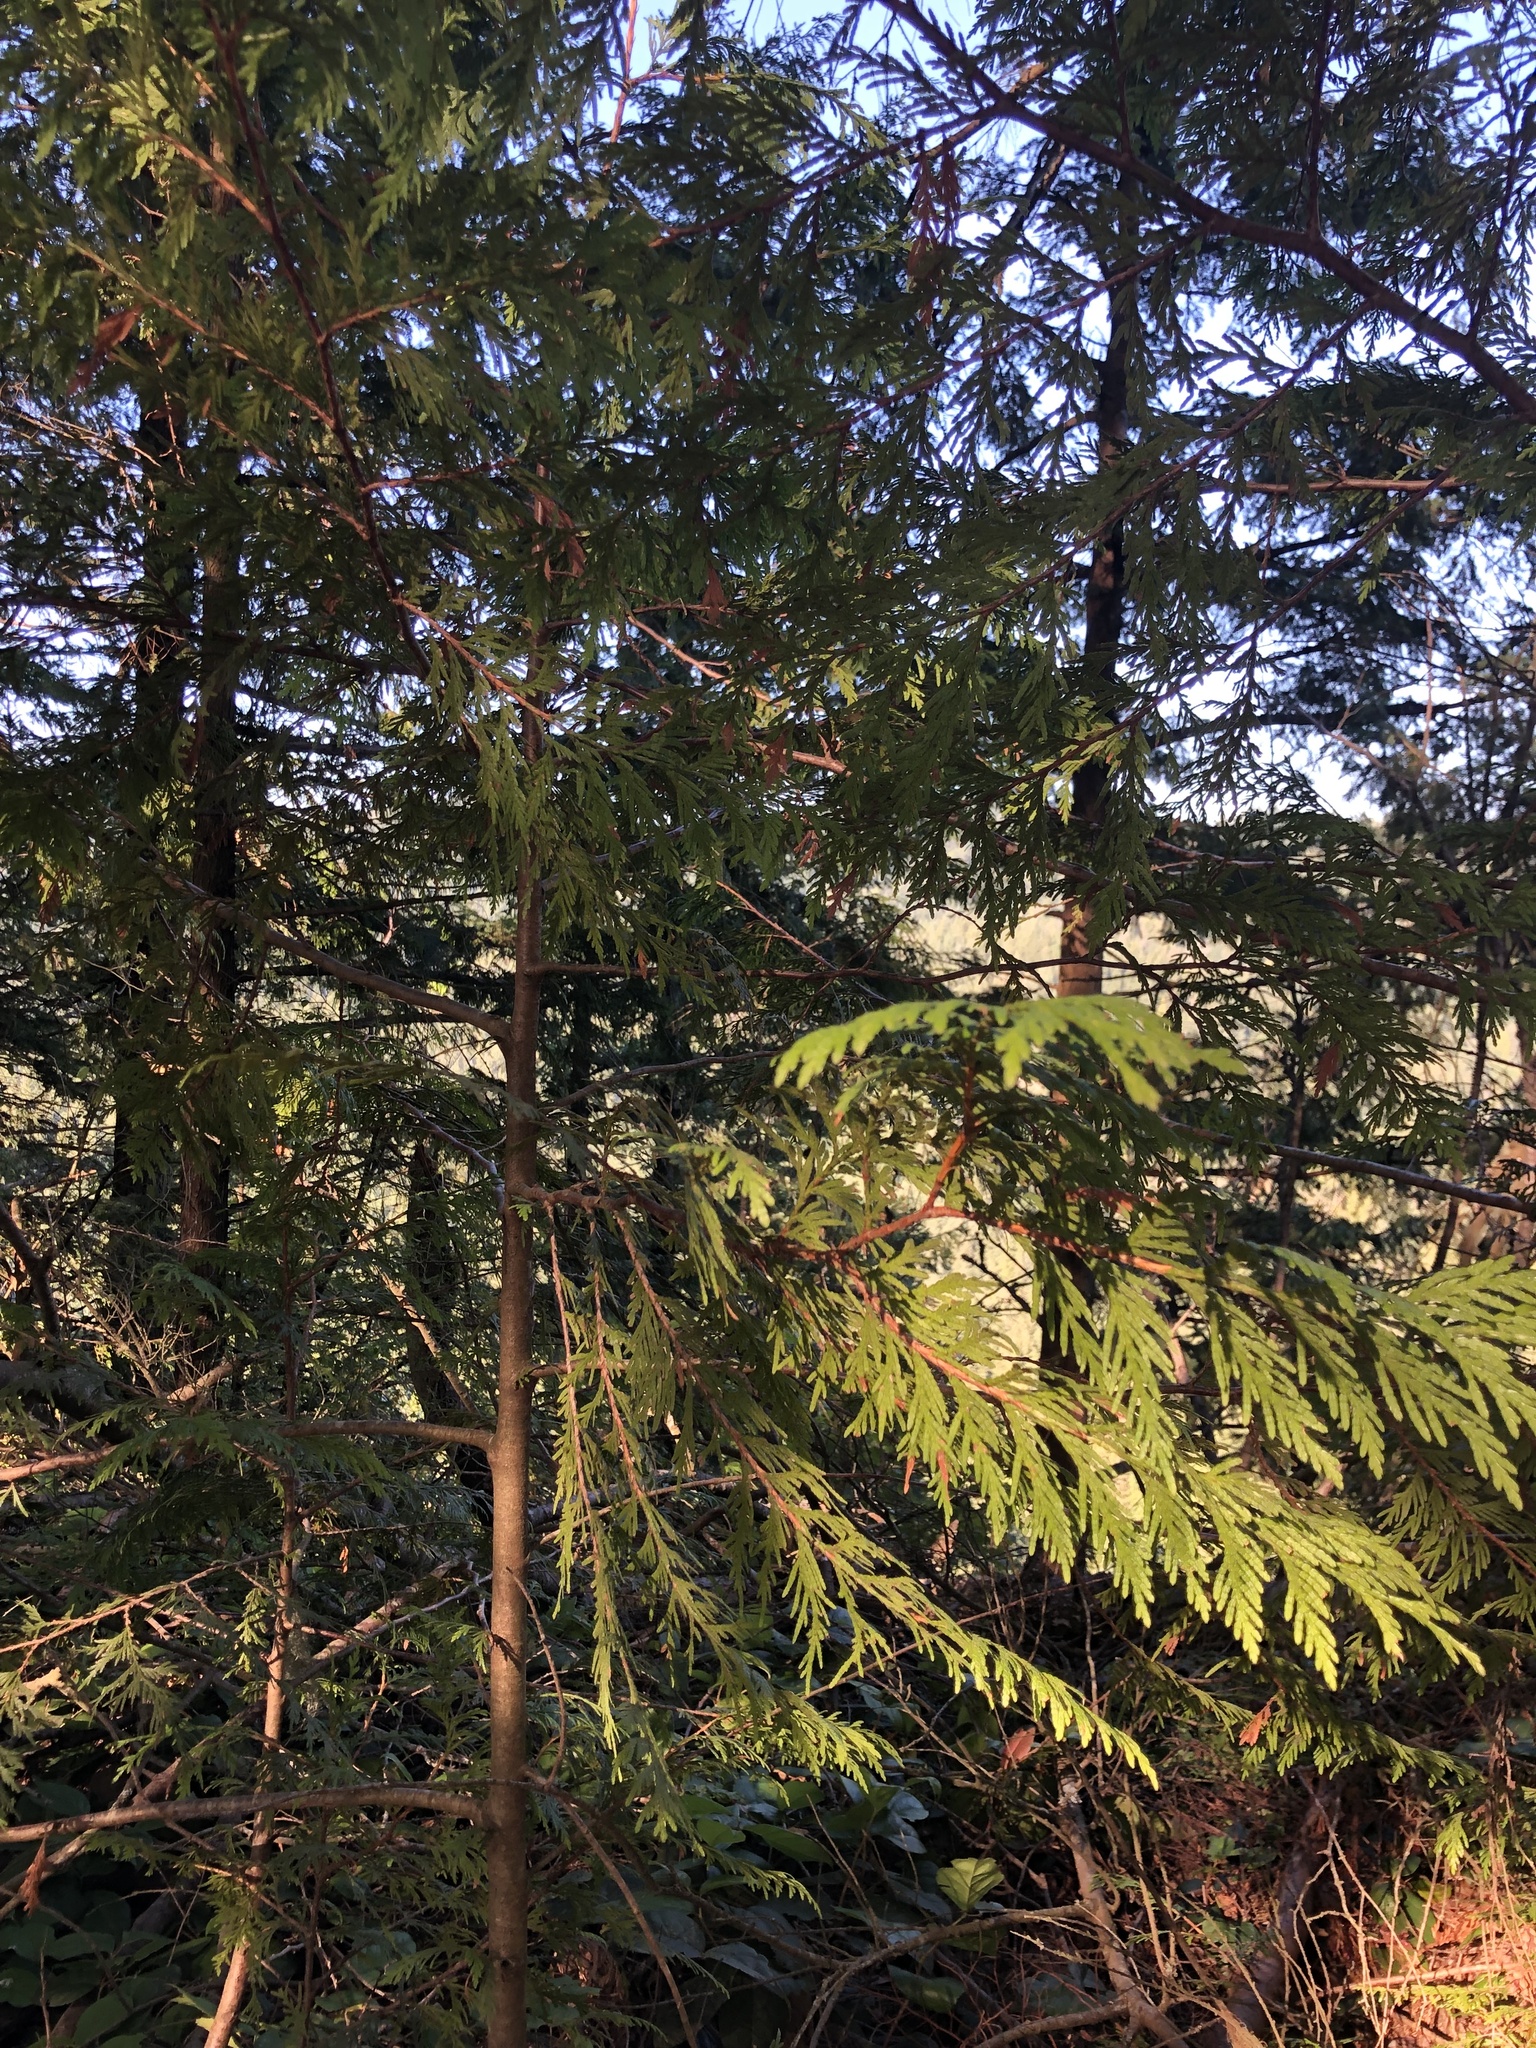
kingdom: Plantae
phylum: Tracheophyta
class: Pinopsida
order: Pinales
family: Cupressaceae
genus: Thuja
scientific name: Thuja plicata
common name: Western red-cedar
